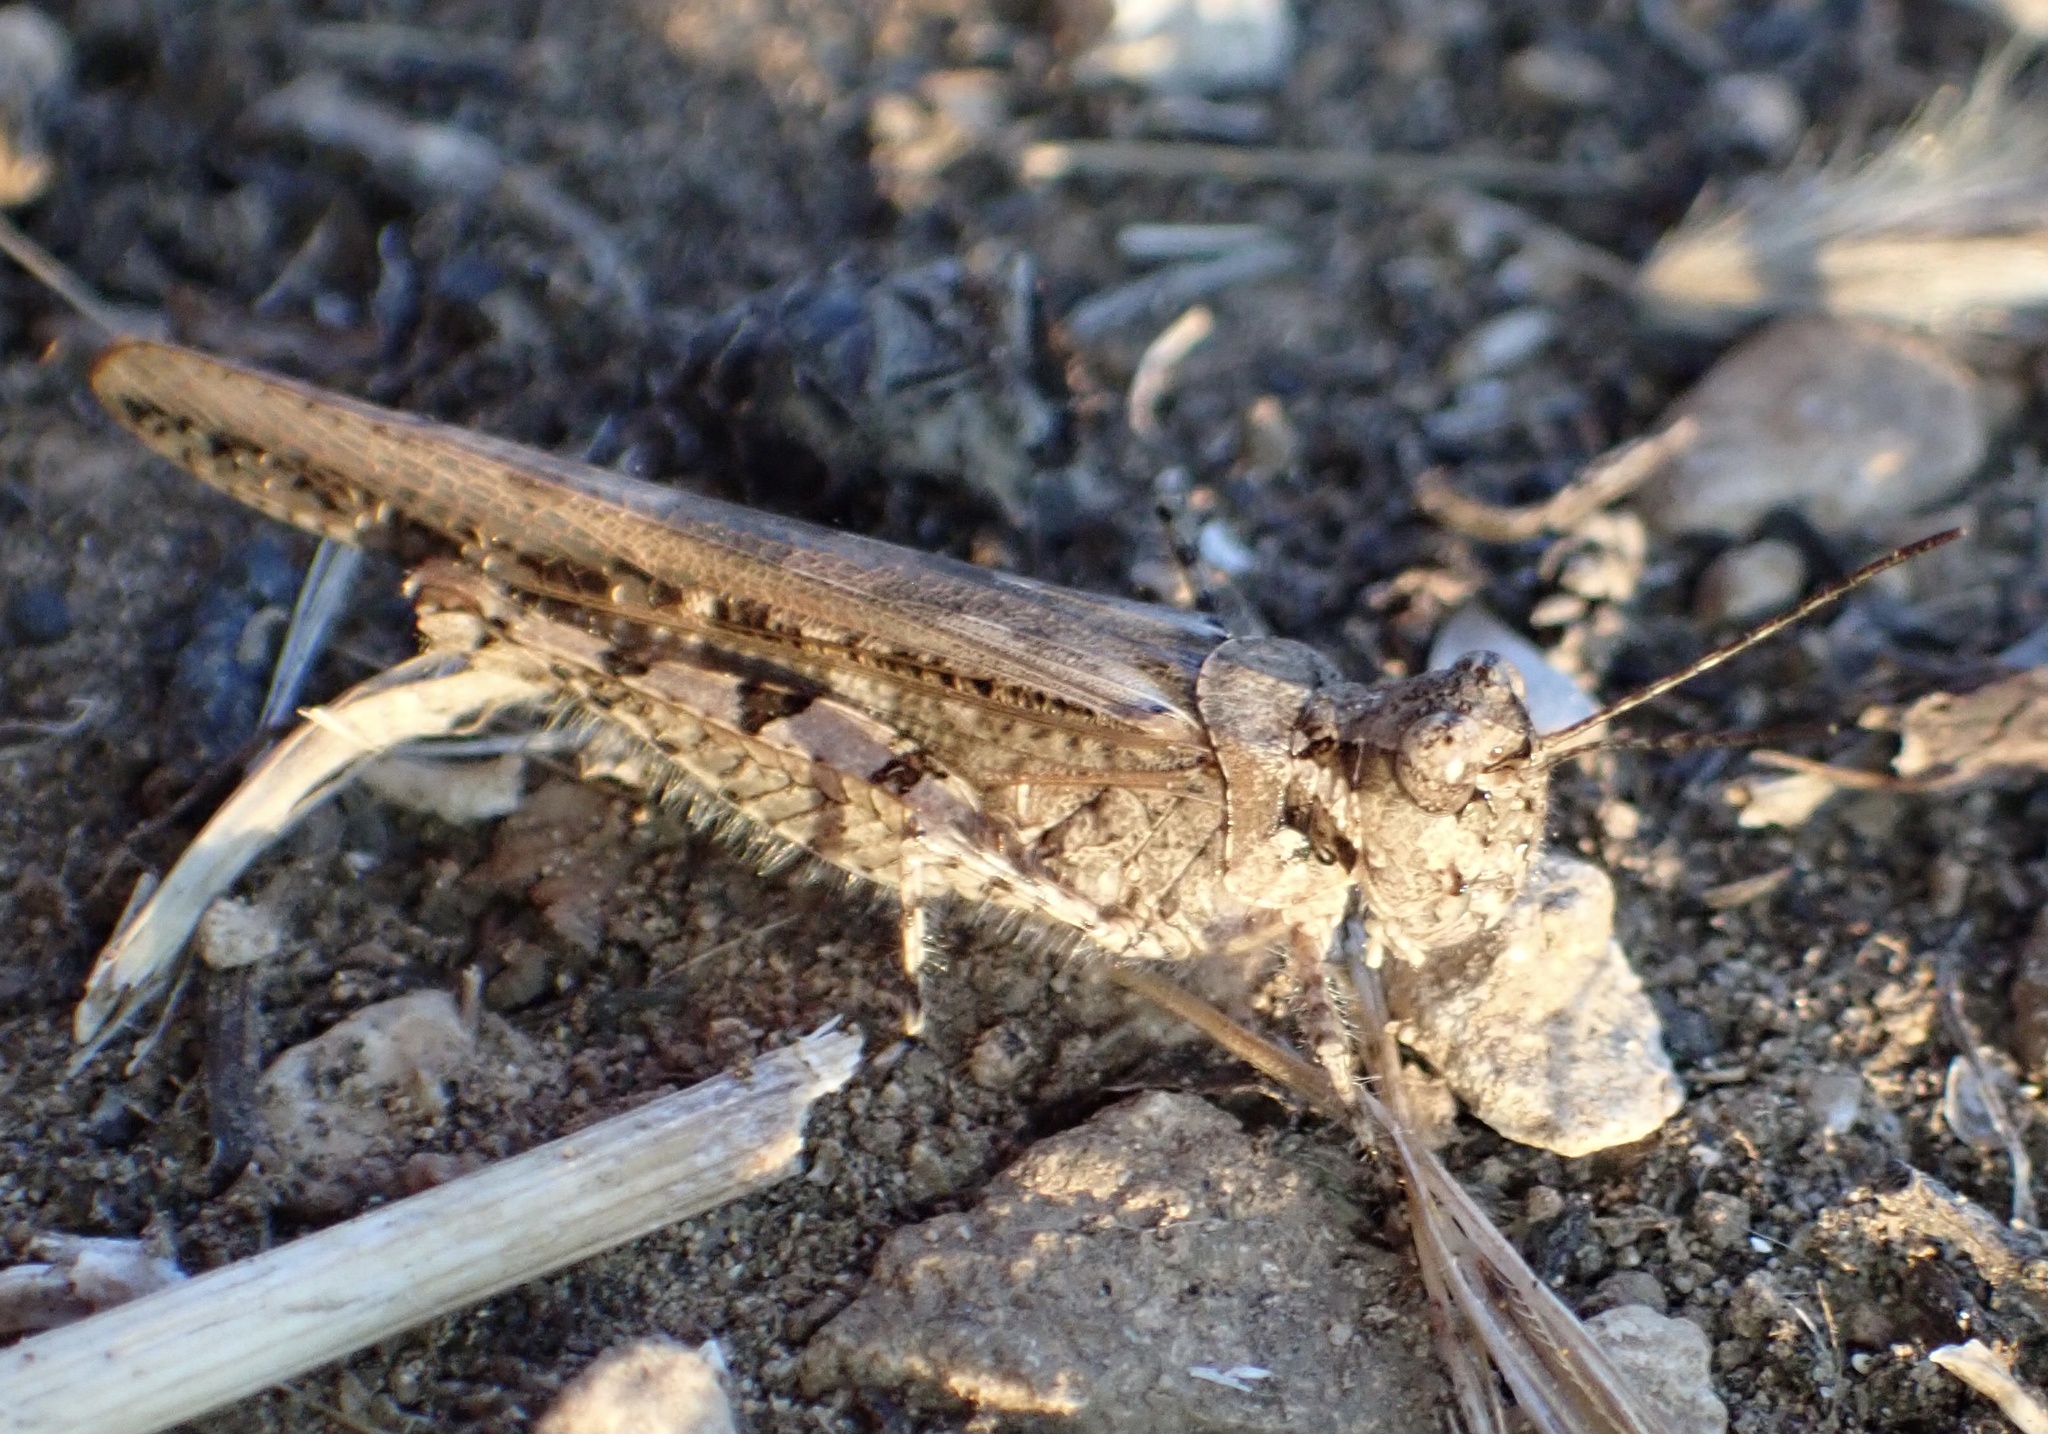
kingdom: Animalia
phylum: Arthropoda
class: Insecta
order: Orthoptera
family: Acrididae
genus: Acrotylus
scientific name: Acrotylus patruelis
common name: Slender burrowing grasshopper
